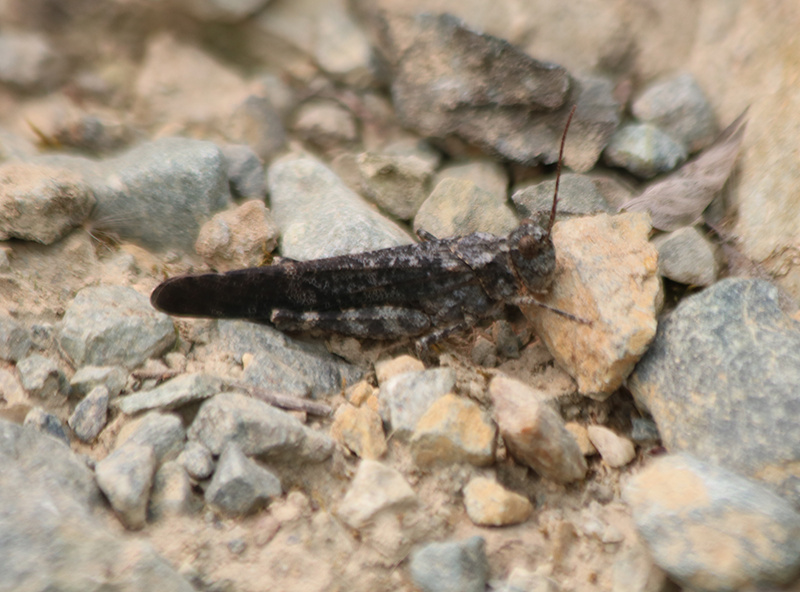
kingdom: Animalia
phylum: Arthropoda
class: Insecta
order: Orthoptera
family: Acrididae
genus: Trimerotropis
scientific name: Trimerotropis verruculata
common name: Crackling forest grasshopper
